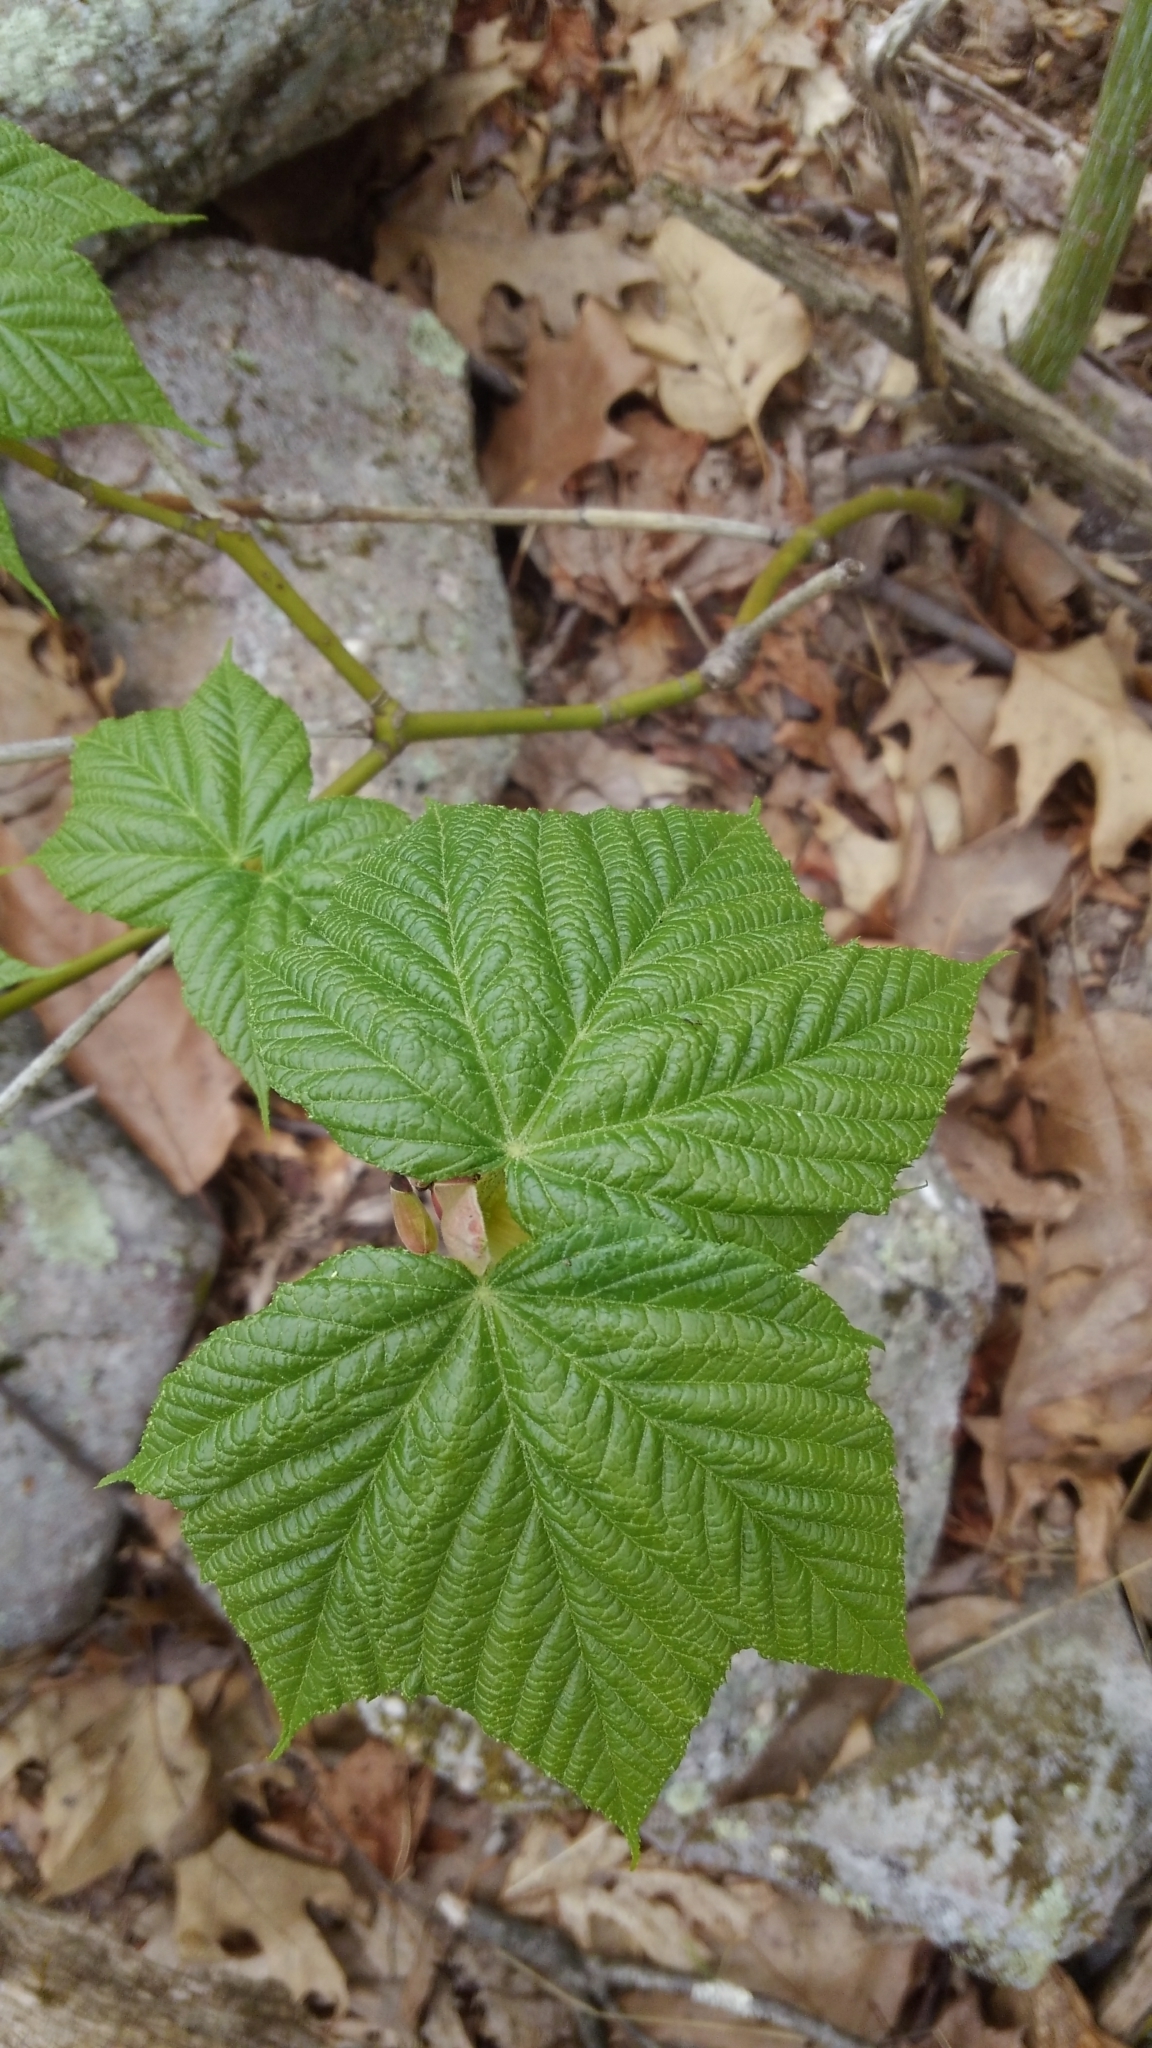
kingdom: Plantae
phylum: Tracheophyta
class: Magnoliopsida
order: Sapindales
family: Sapindaceae
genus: Acer
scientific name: Acer pensylvanicum
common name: Moosewood
